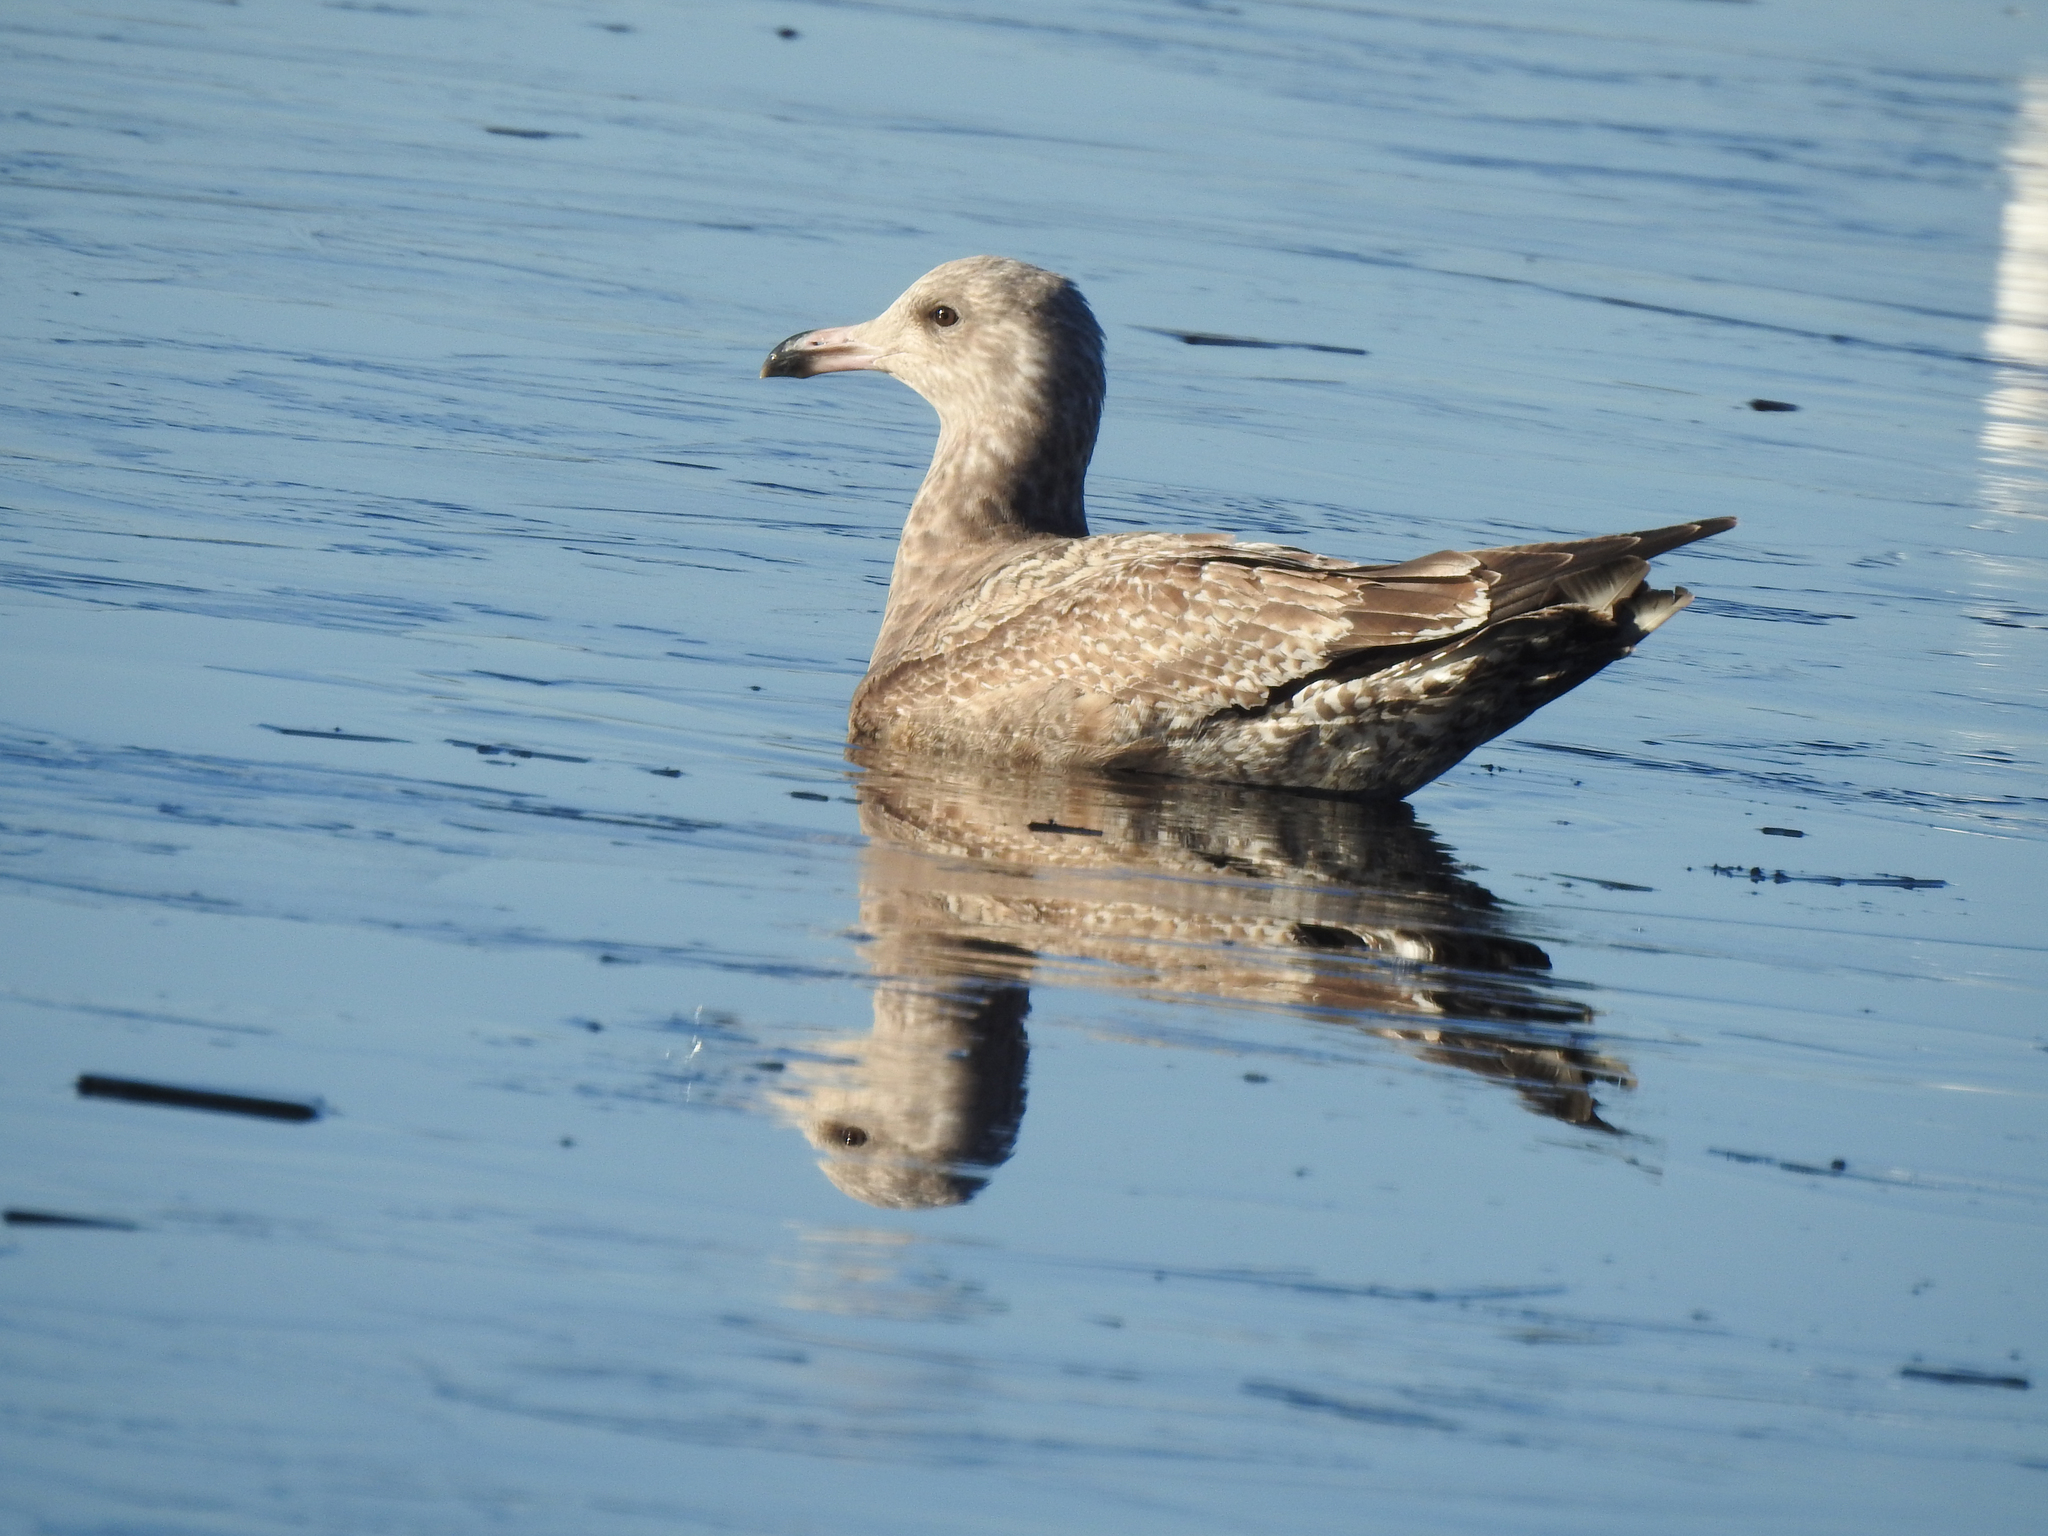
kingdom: Animalia
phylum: Chordata
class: Aves
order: Charadriiformes
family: Laridae
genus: Larus
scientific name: Larus argentatus
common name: Herring gull
